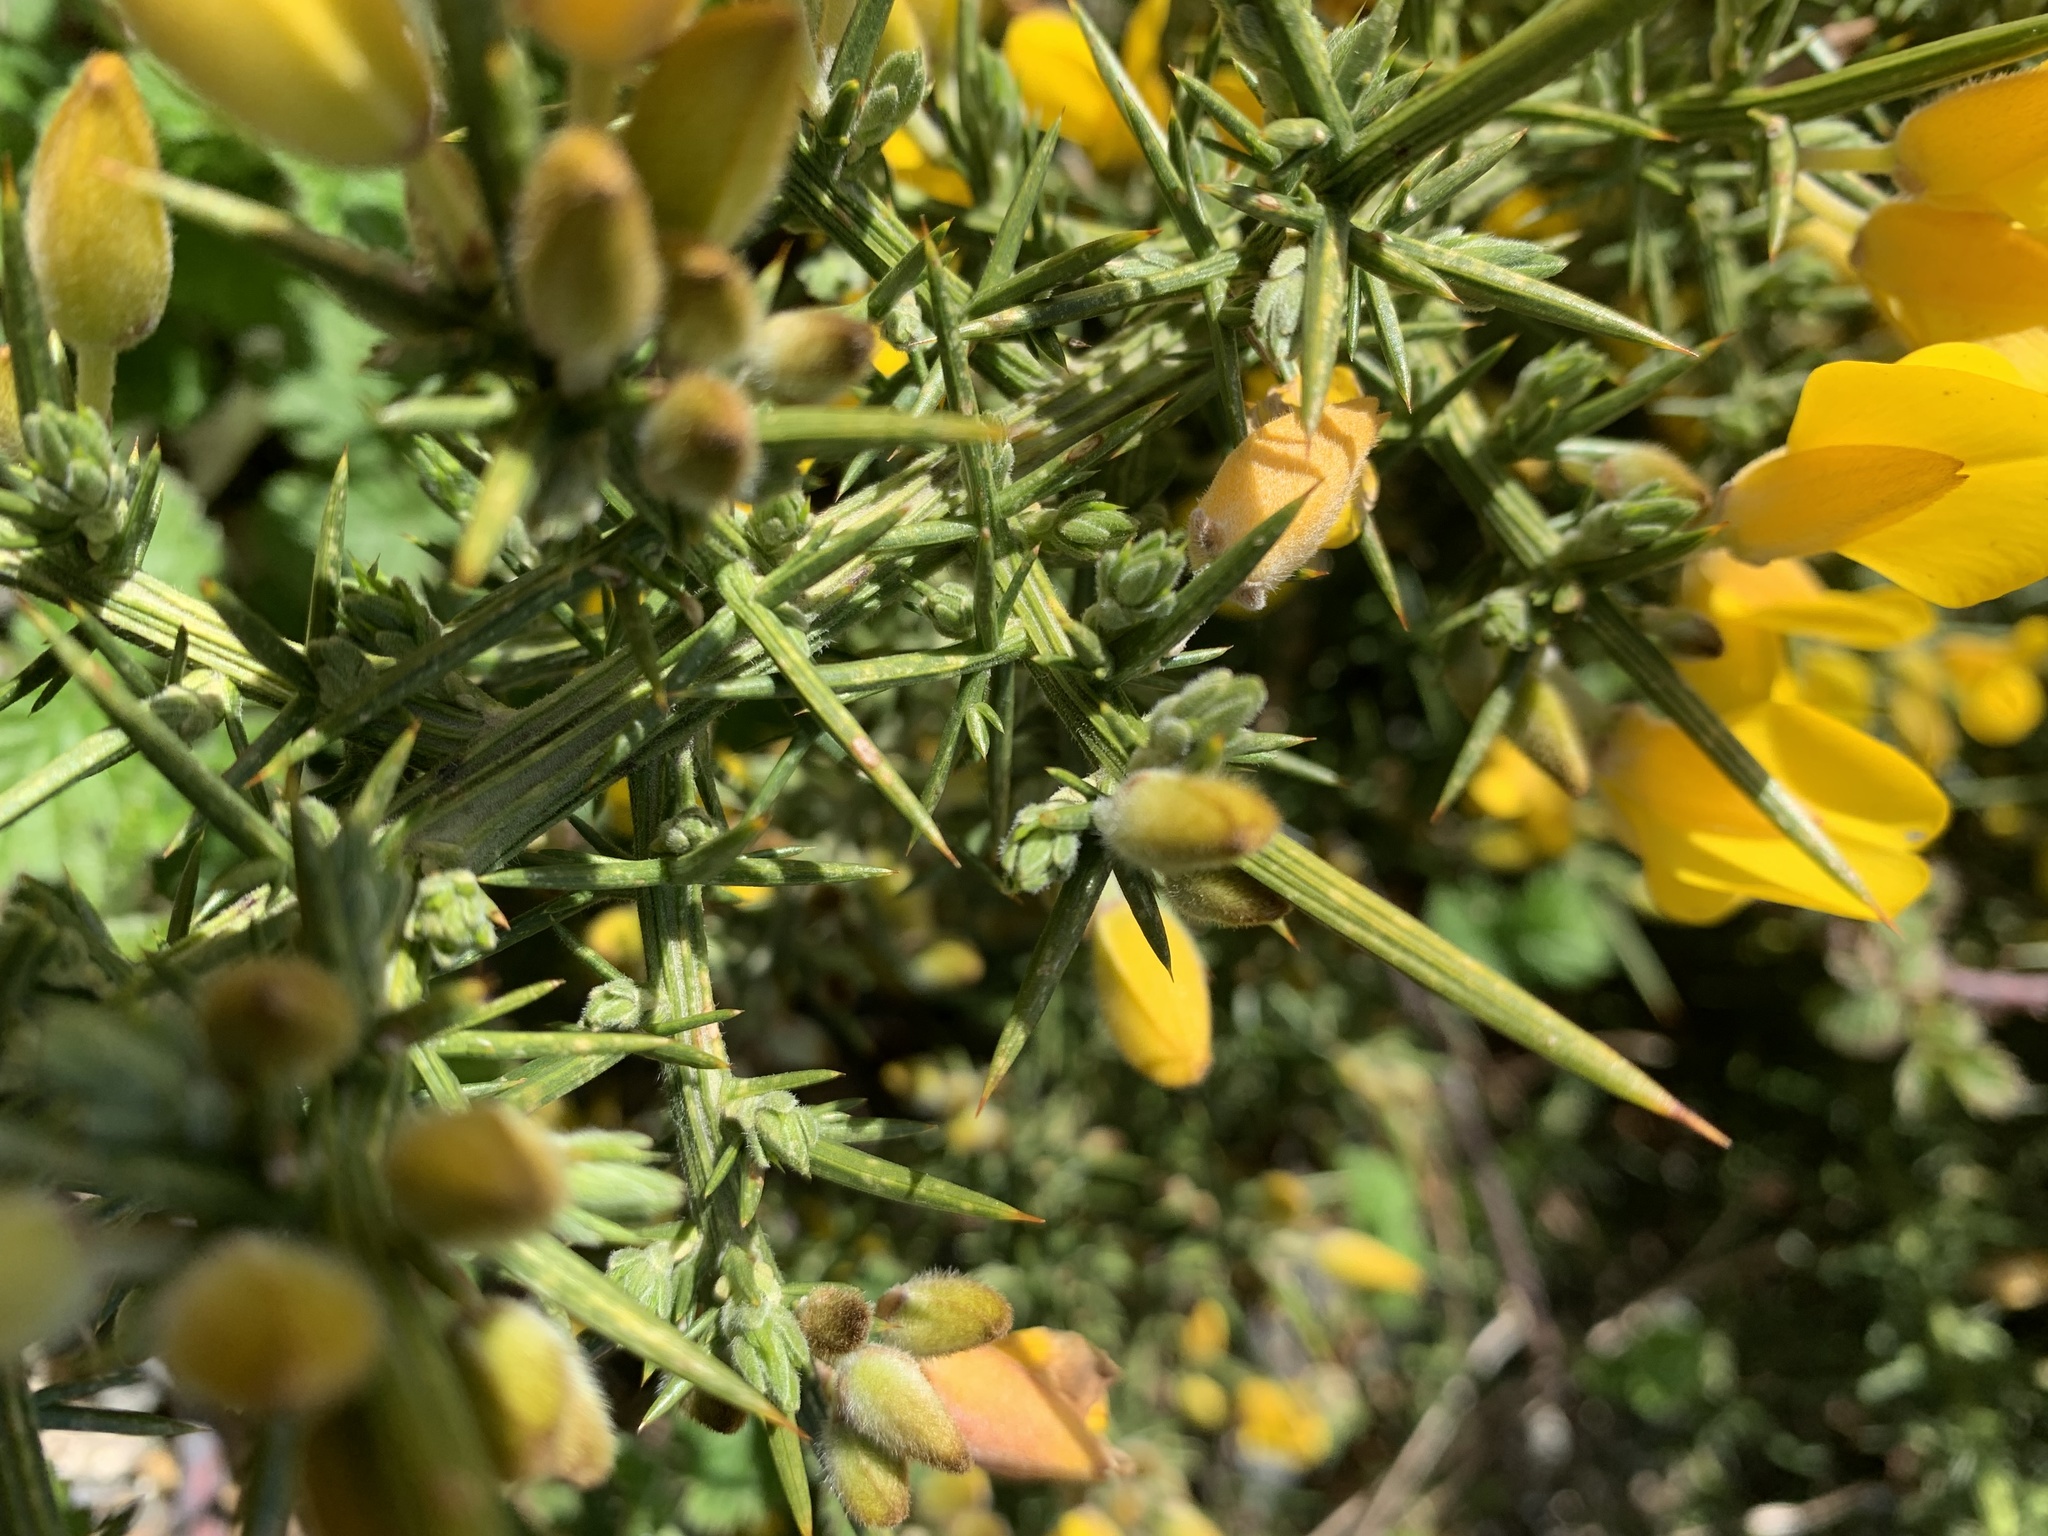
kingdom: Plantae
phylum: Tracheophyta
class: Magnoliopsida
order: Fabales
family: Fabaceae
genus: Ulex
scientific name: Ulex europaeus
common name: Common gorse
